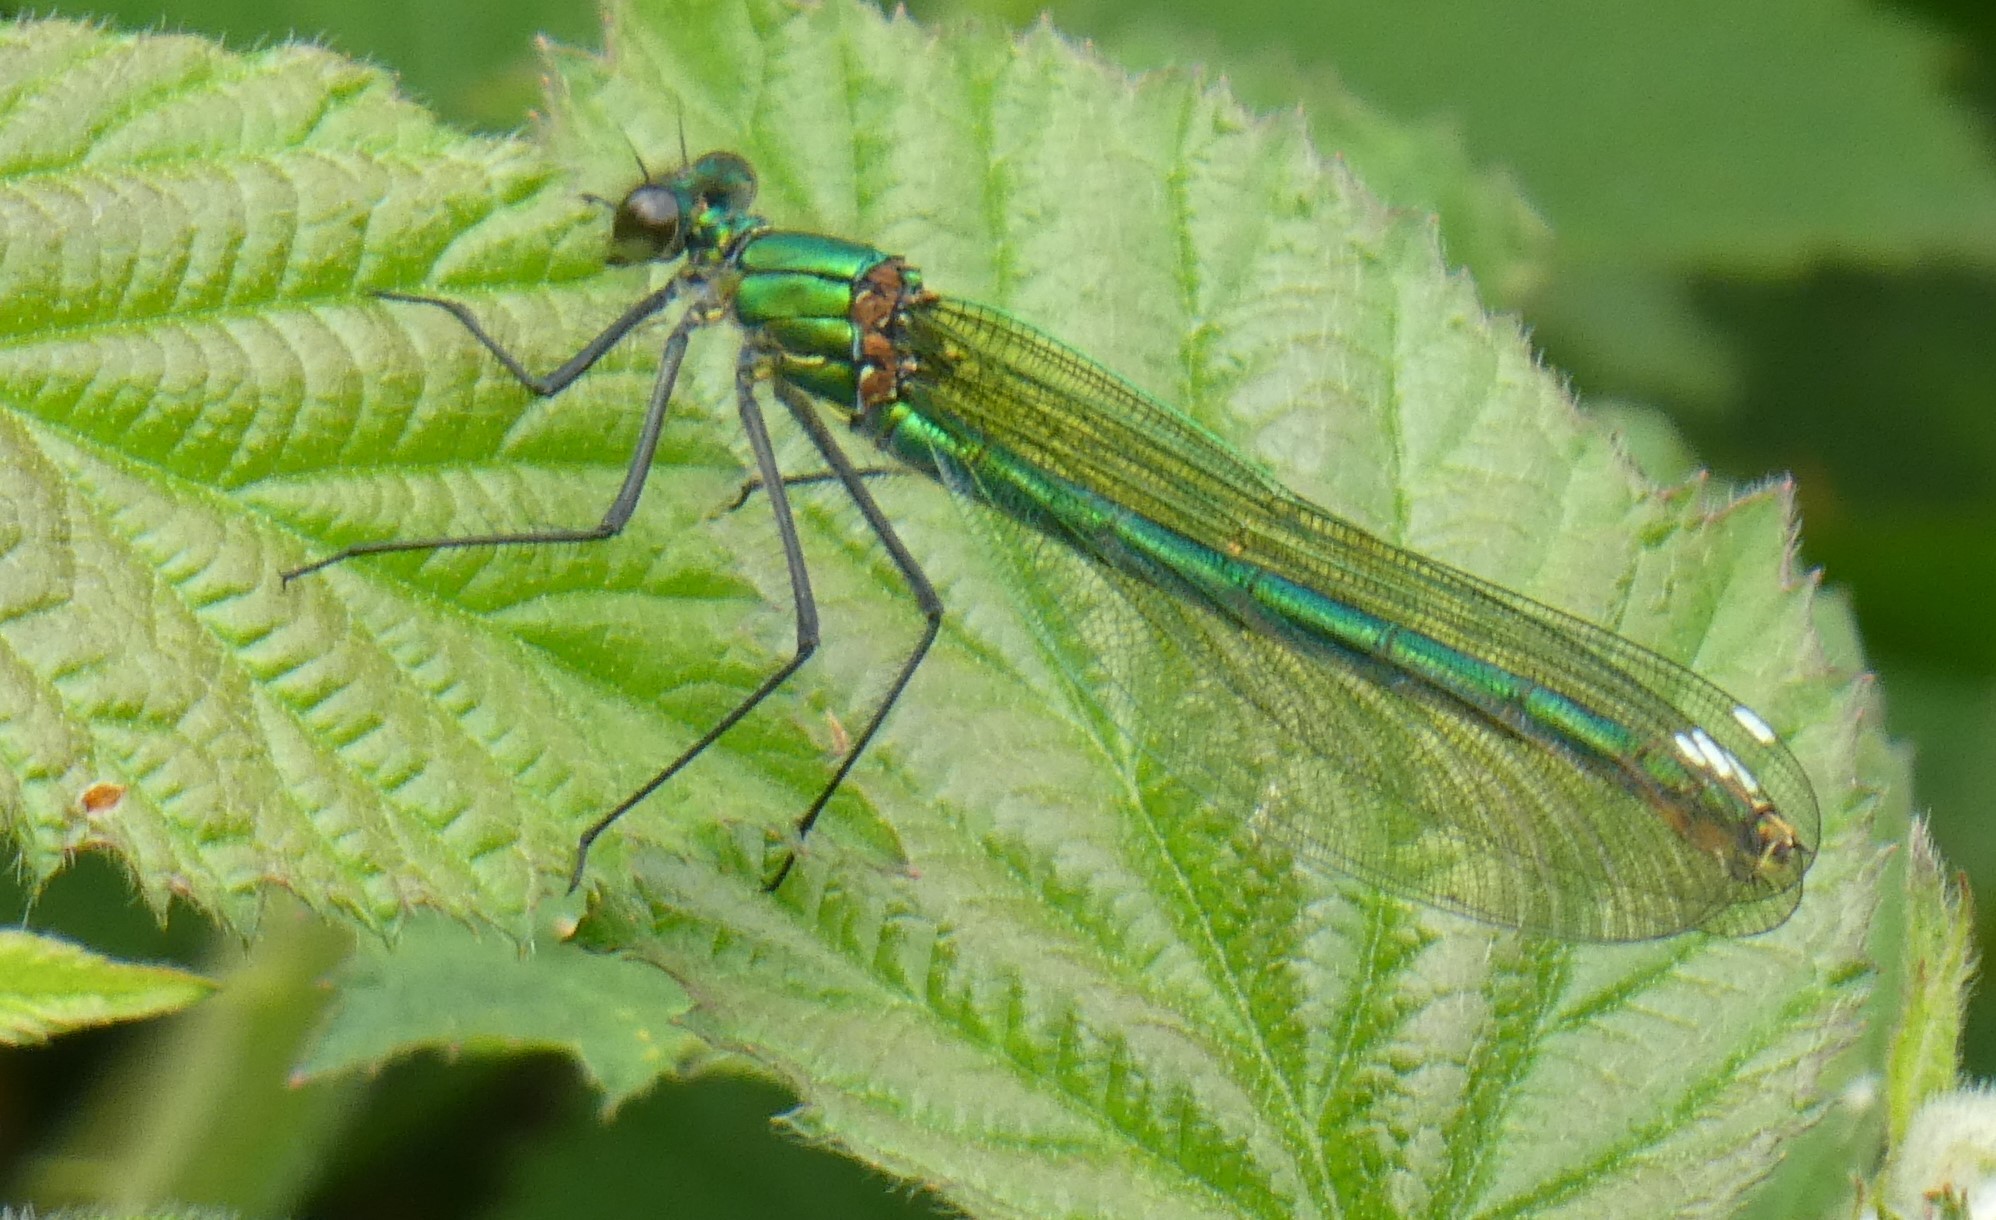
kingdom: Animalia
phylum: Arthropoda
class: Insecta
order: Odonata
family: Calopterygidae
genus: Calopteryx
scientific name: Calopteryx splendens
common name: Banded demoiselle
